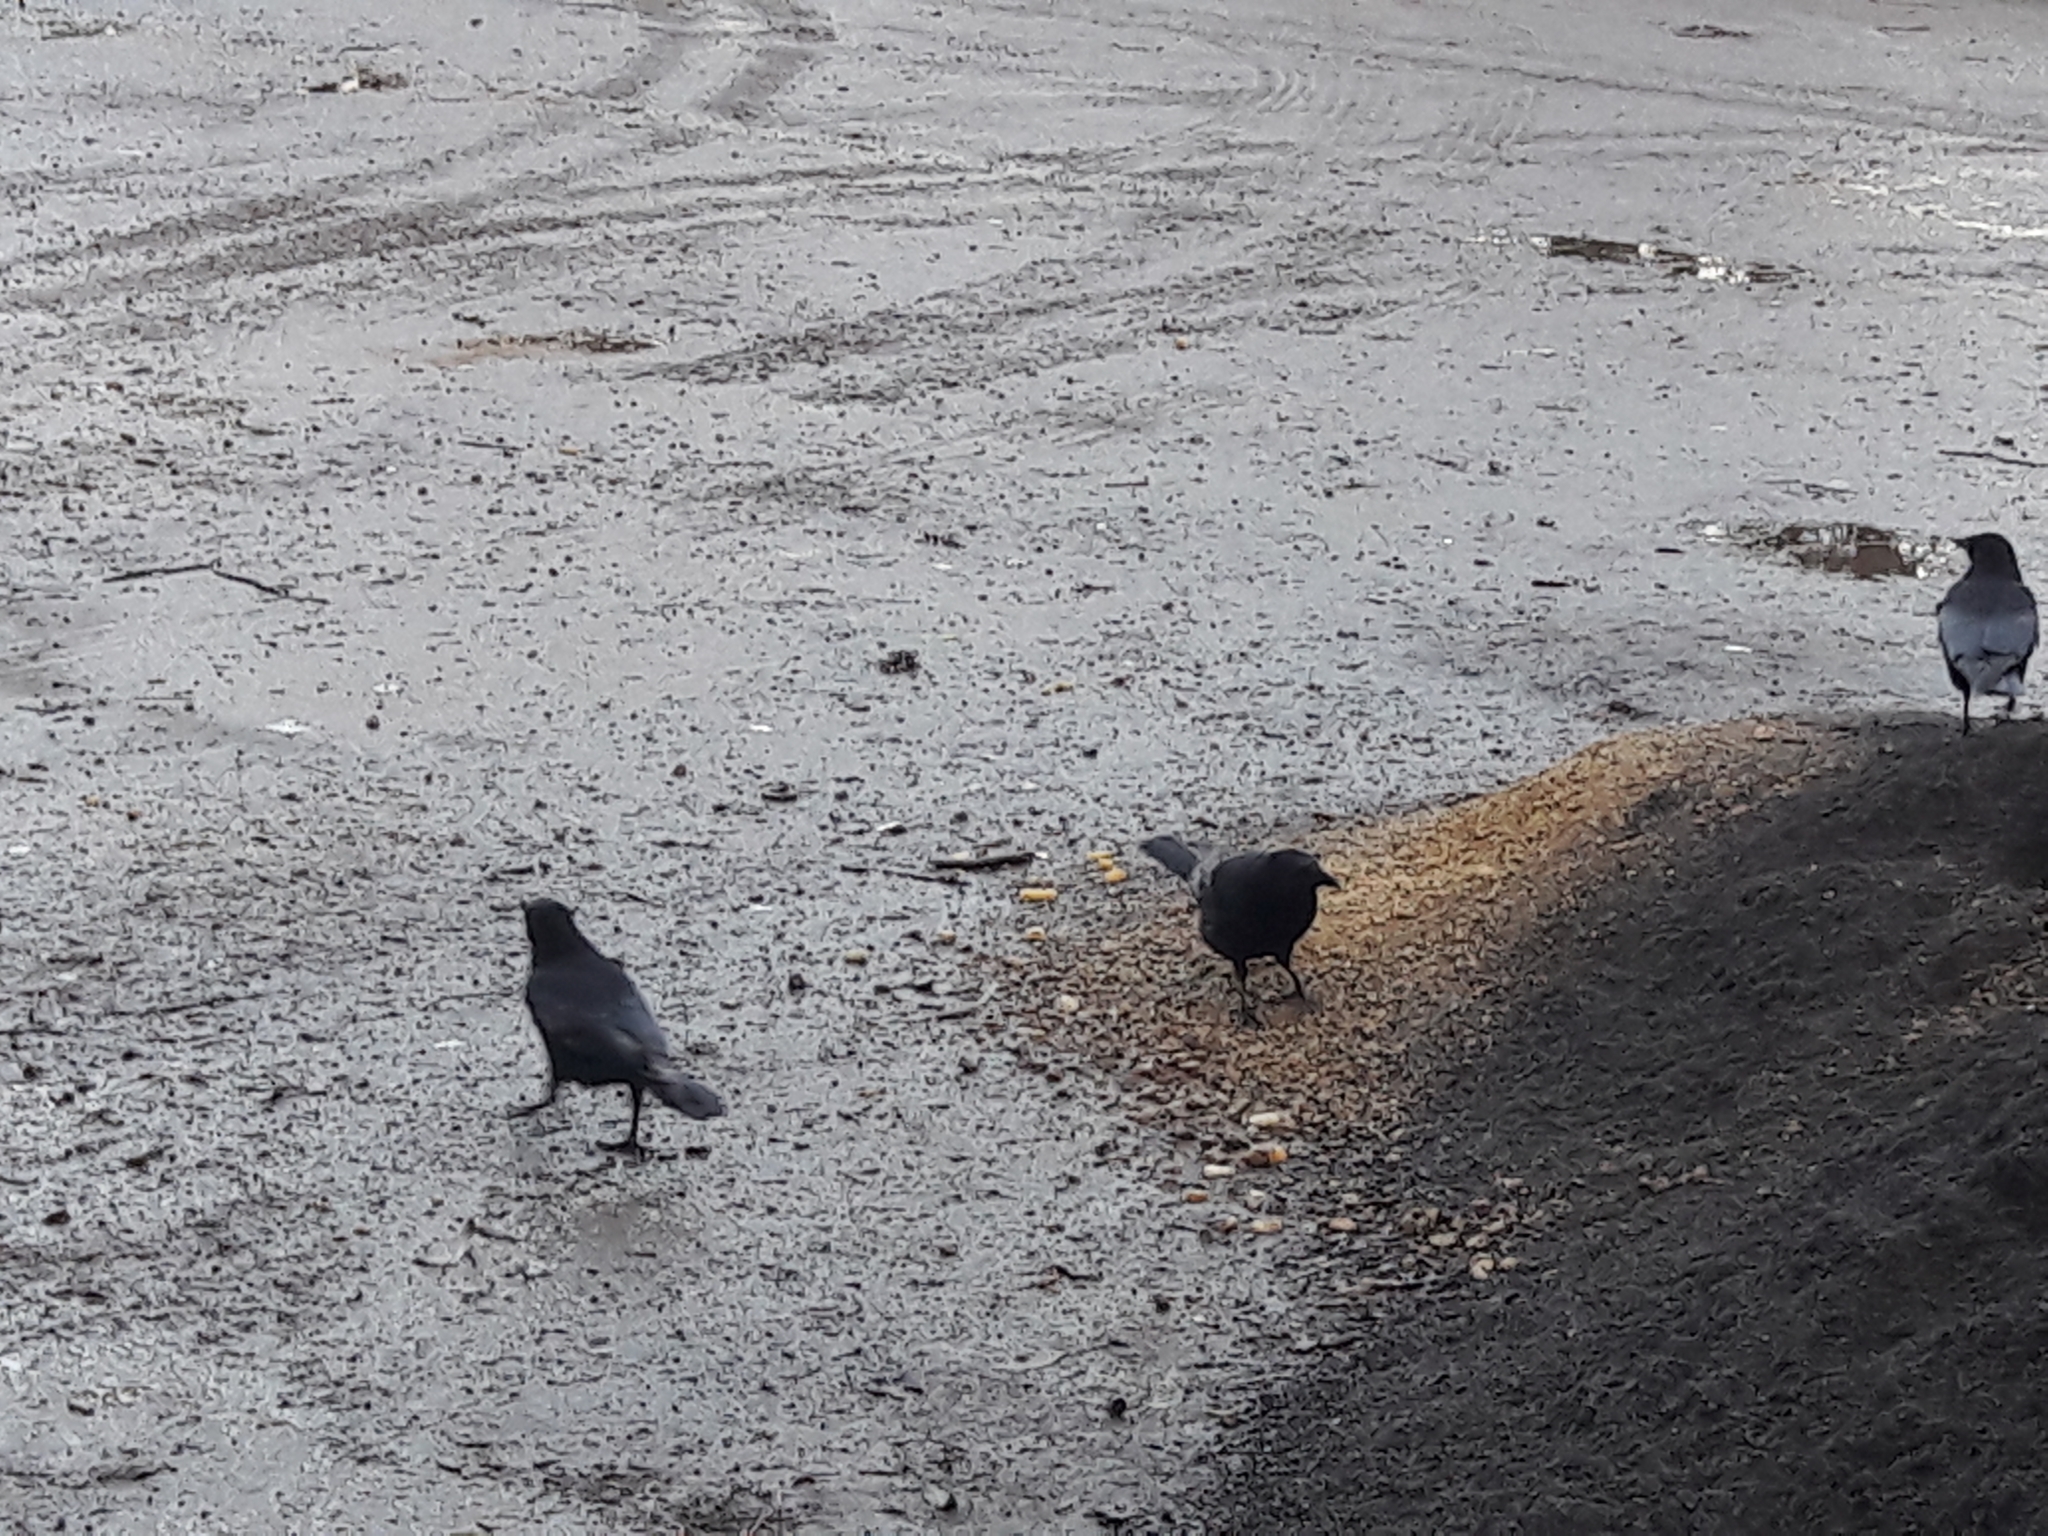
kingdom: Animalia
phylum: Chordata
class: Aves
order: Passeriformes
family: Corvidae
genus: Corvus
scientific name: Corvus corone
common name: Carrion crow
